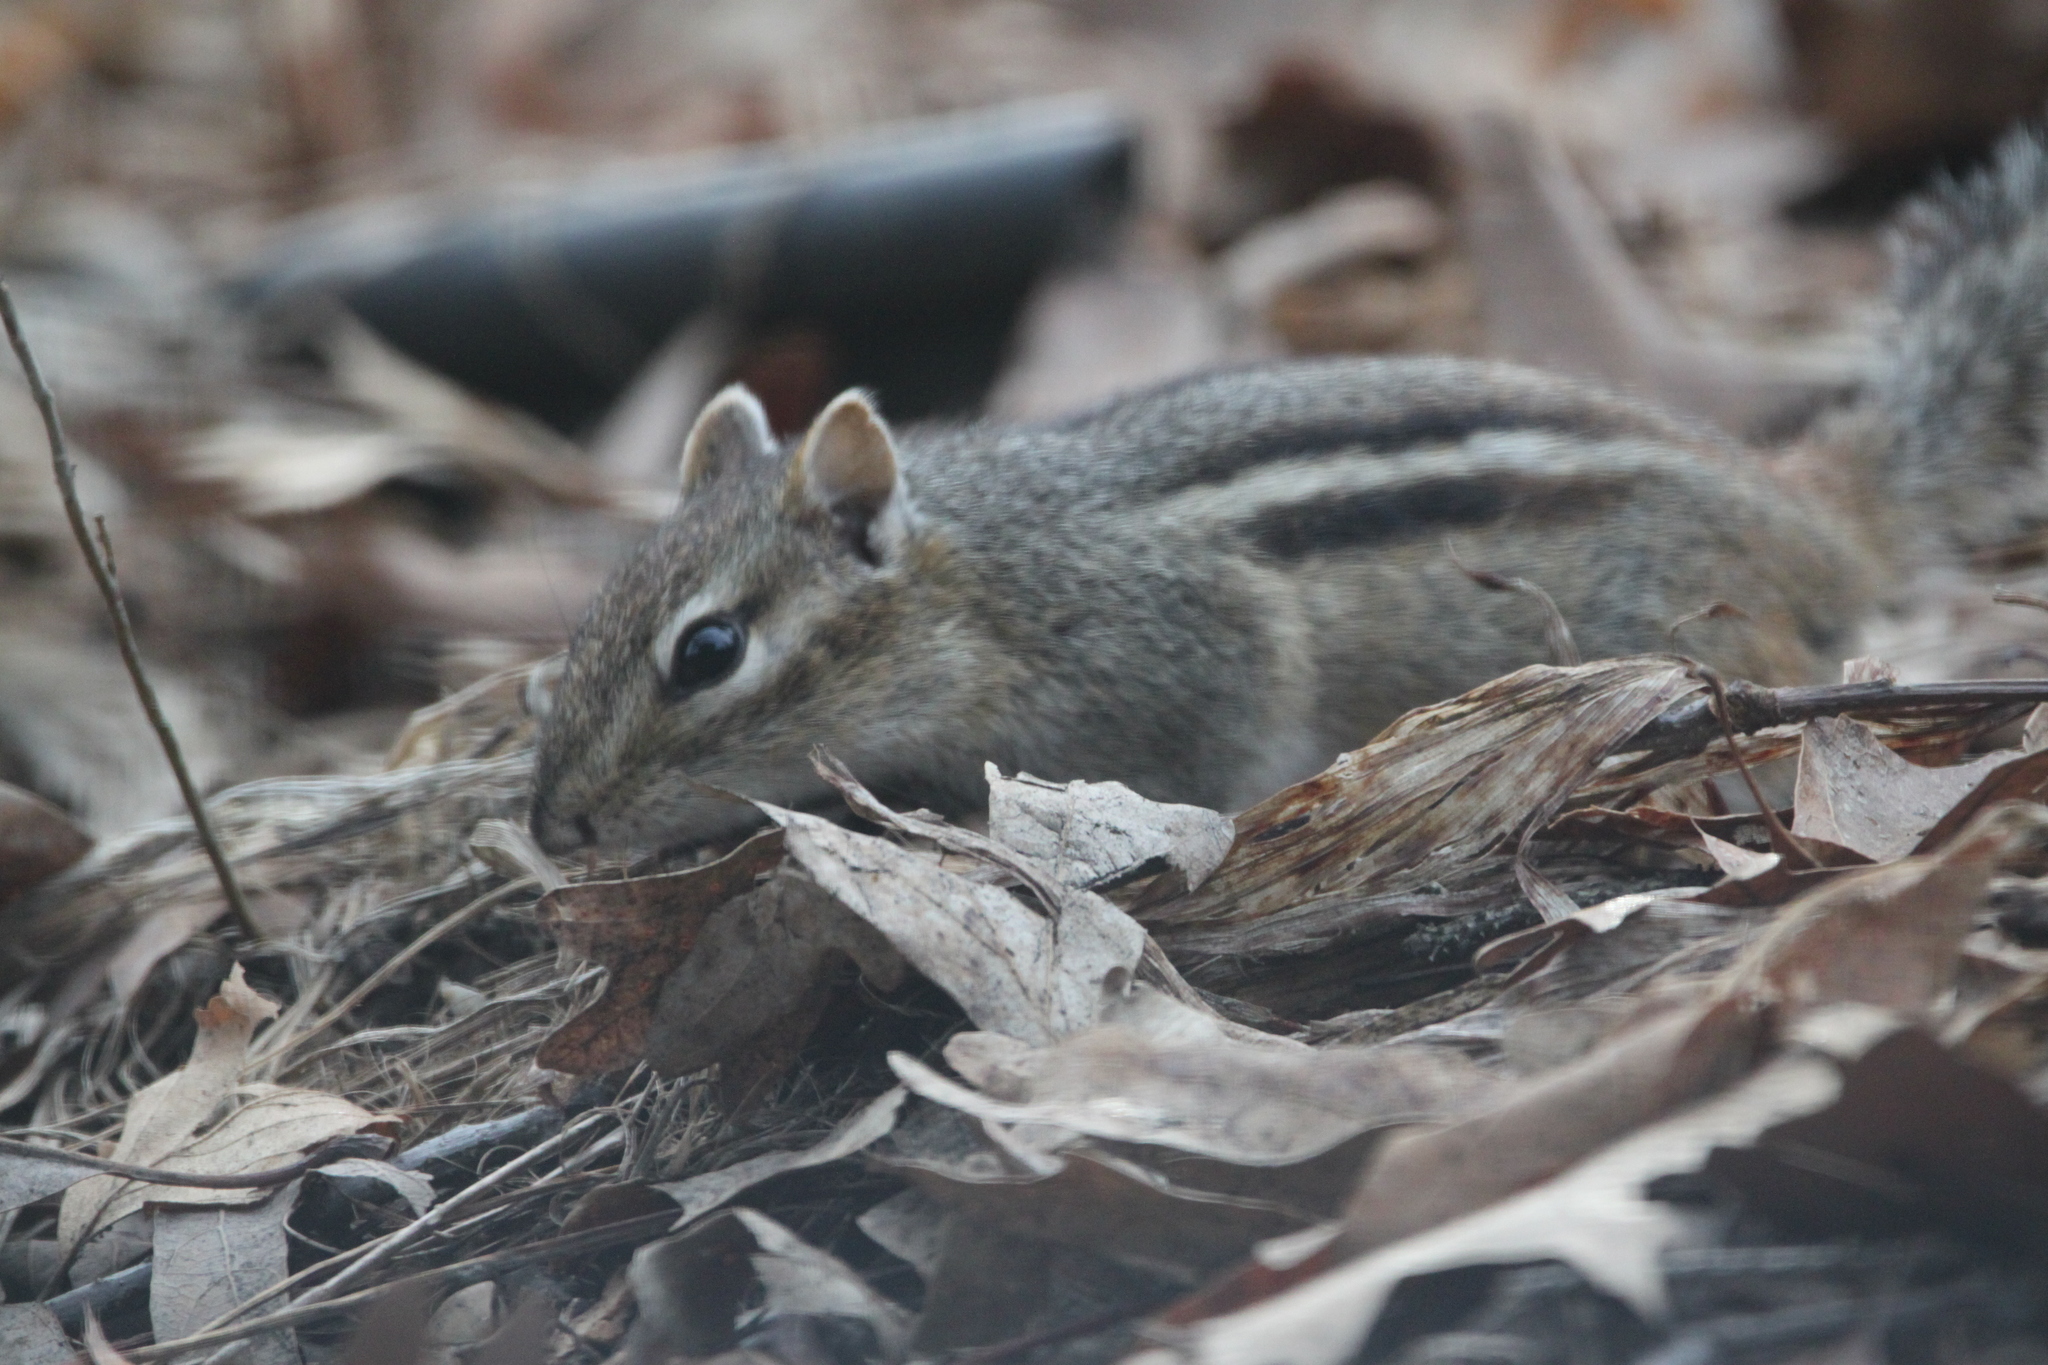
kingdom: Animalia
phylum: Chordata
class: Mammalia
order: Rodentia
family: Sciuridae
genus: Tamias
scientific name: Tamias striatus
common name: Eastern chipmunk
